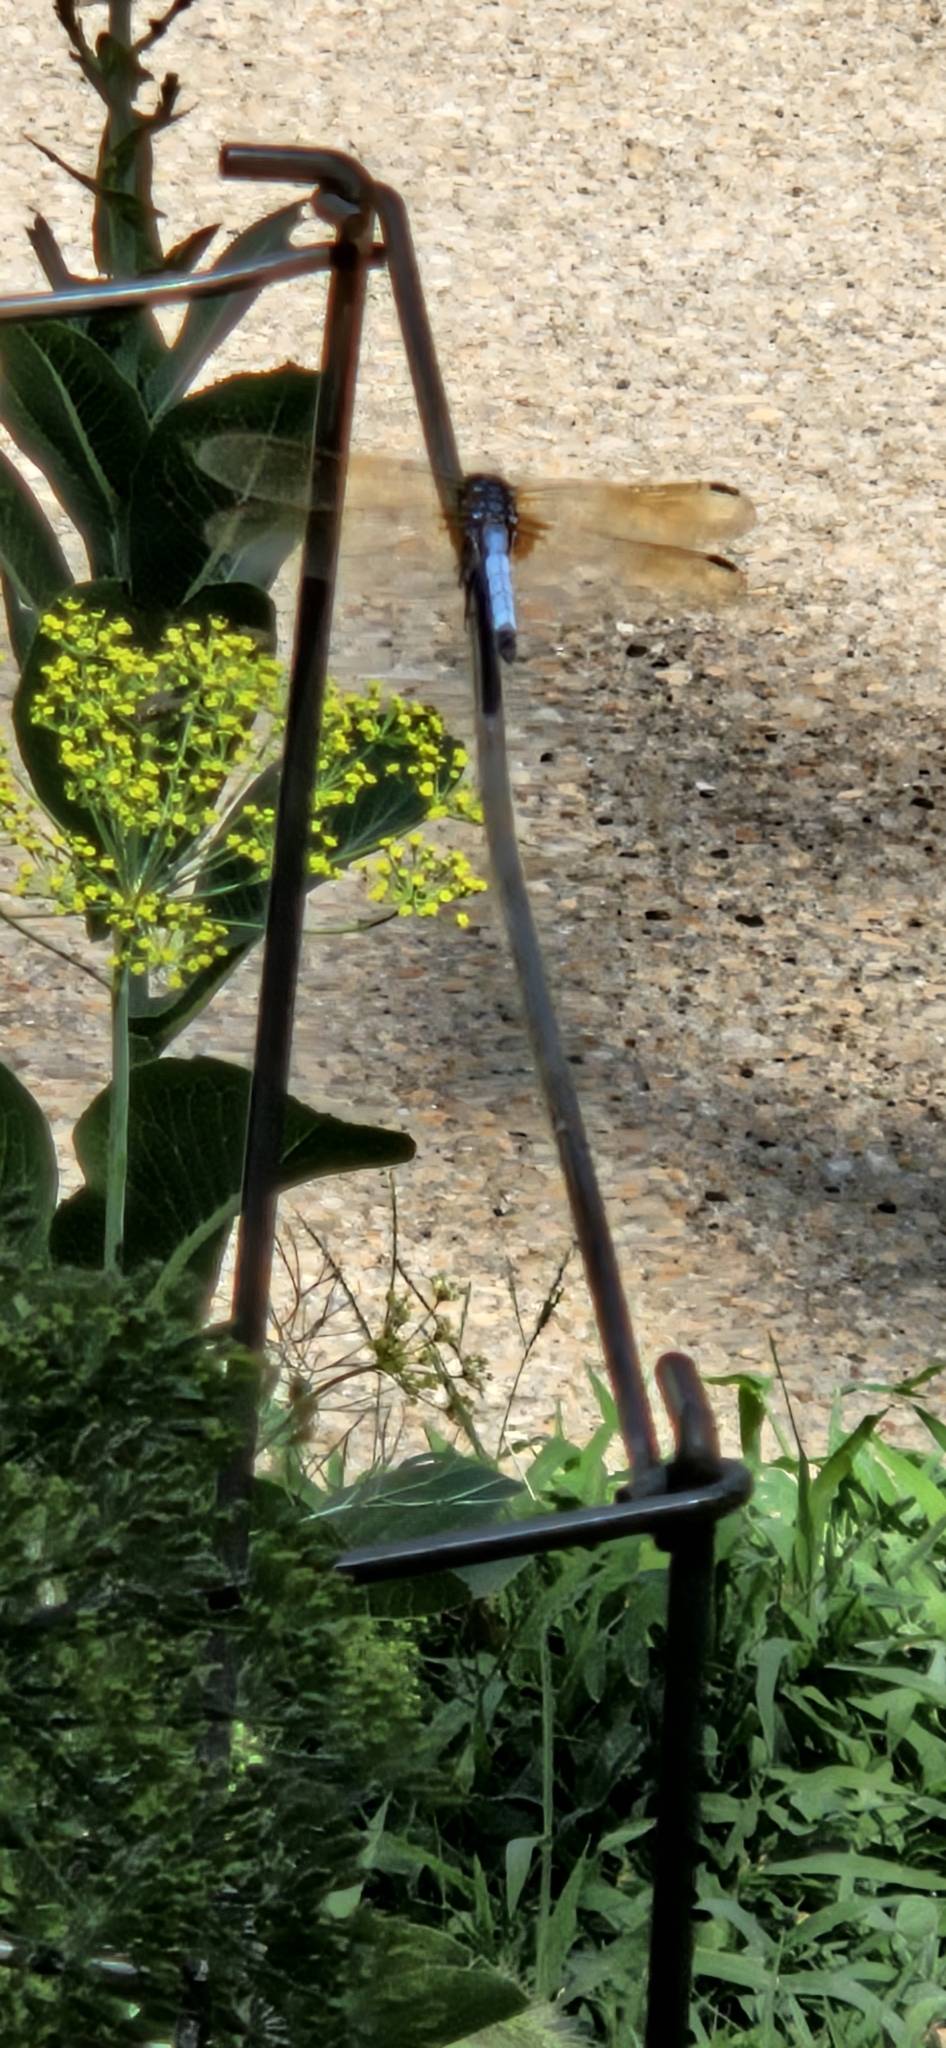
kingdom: Animalia
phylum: Arthropoda
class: Insecta
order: Odonata
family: Libellulidae
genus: Pachydiplax
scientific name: Pachydiplax longipennis
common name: Blue dasher
